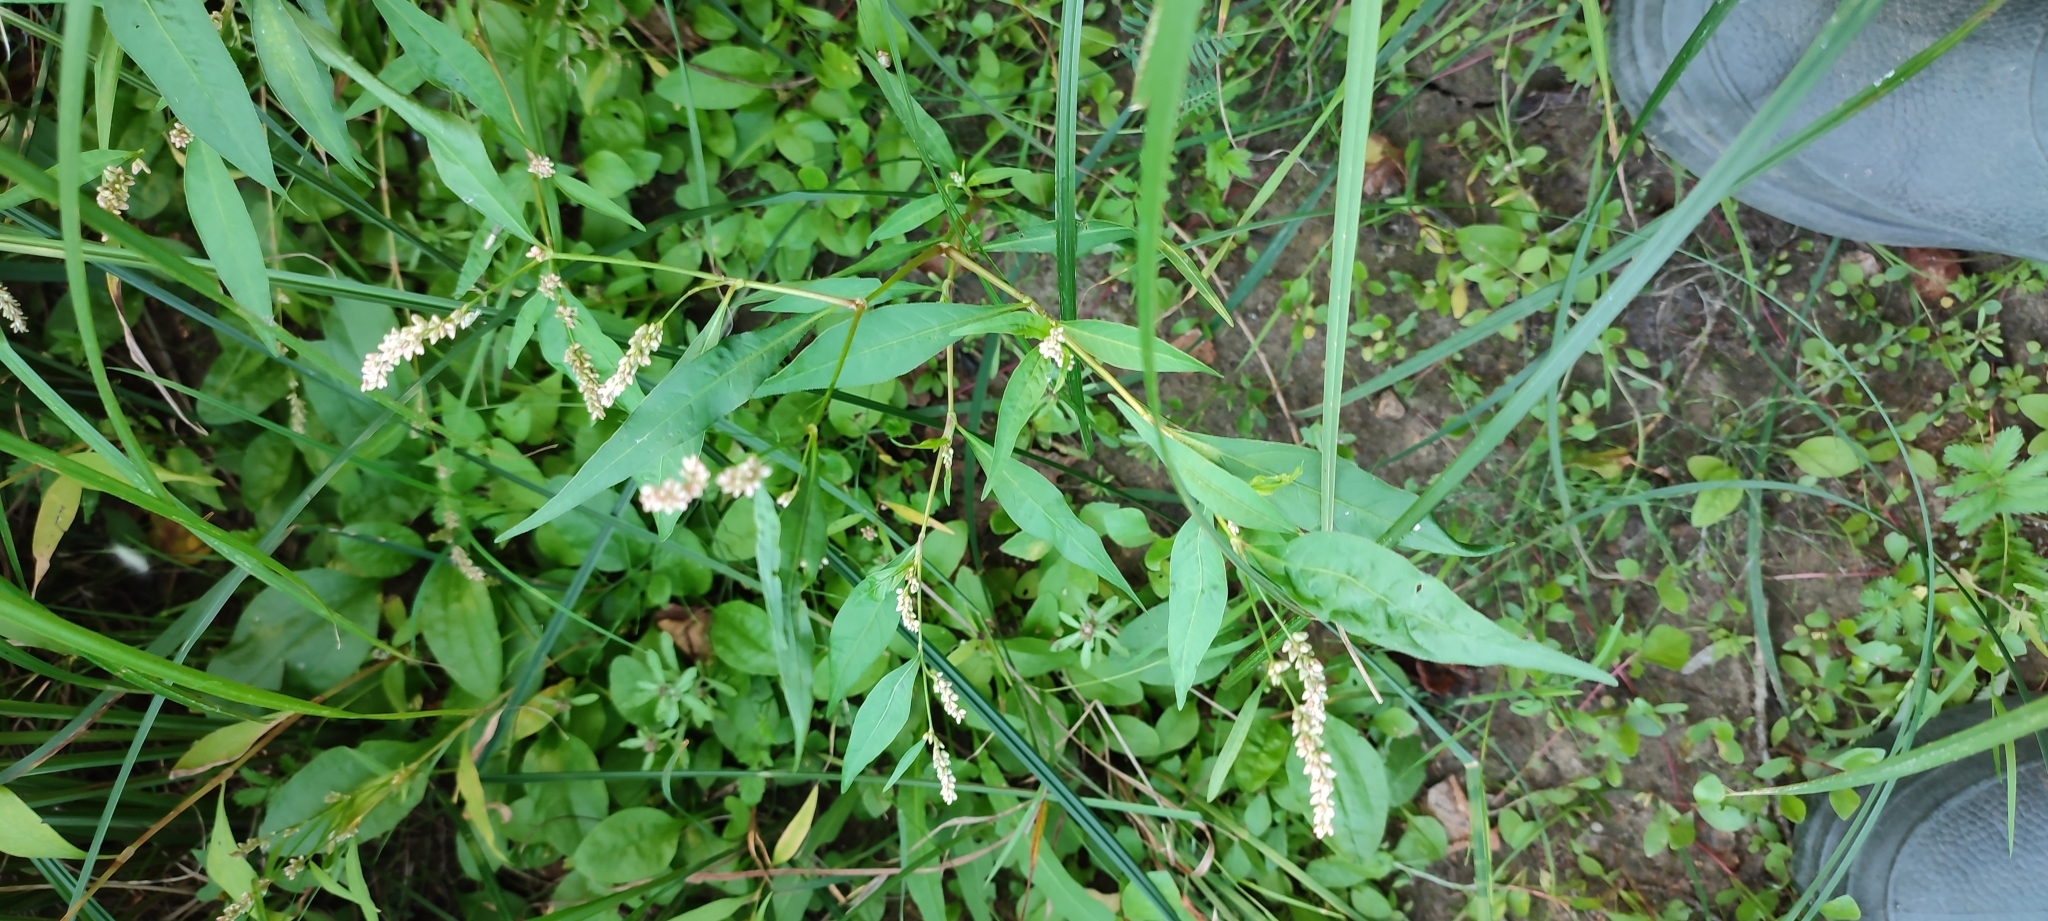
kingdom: Plantae
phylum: Tracheophyta
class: Magnoliopsida
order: Caryophyllales
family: Polygonaceae
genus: Persicaria
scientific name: Persicaria lapathifolia
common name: Curlytop knotweed
